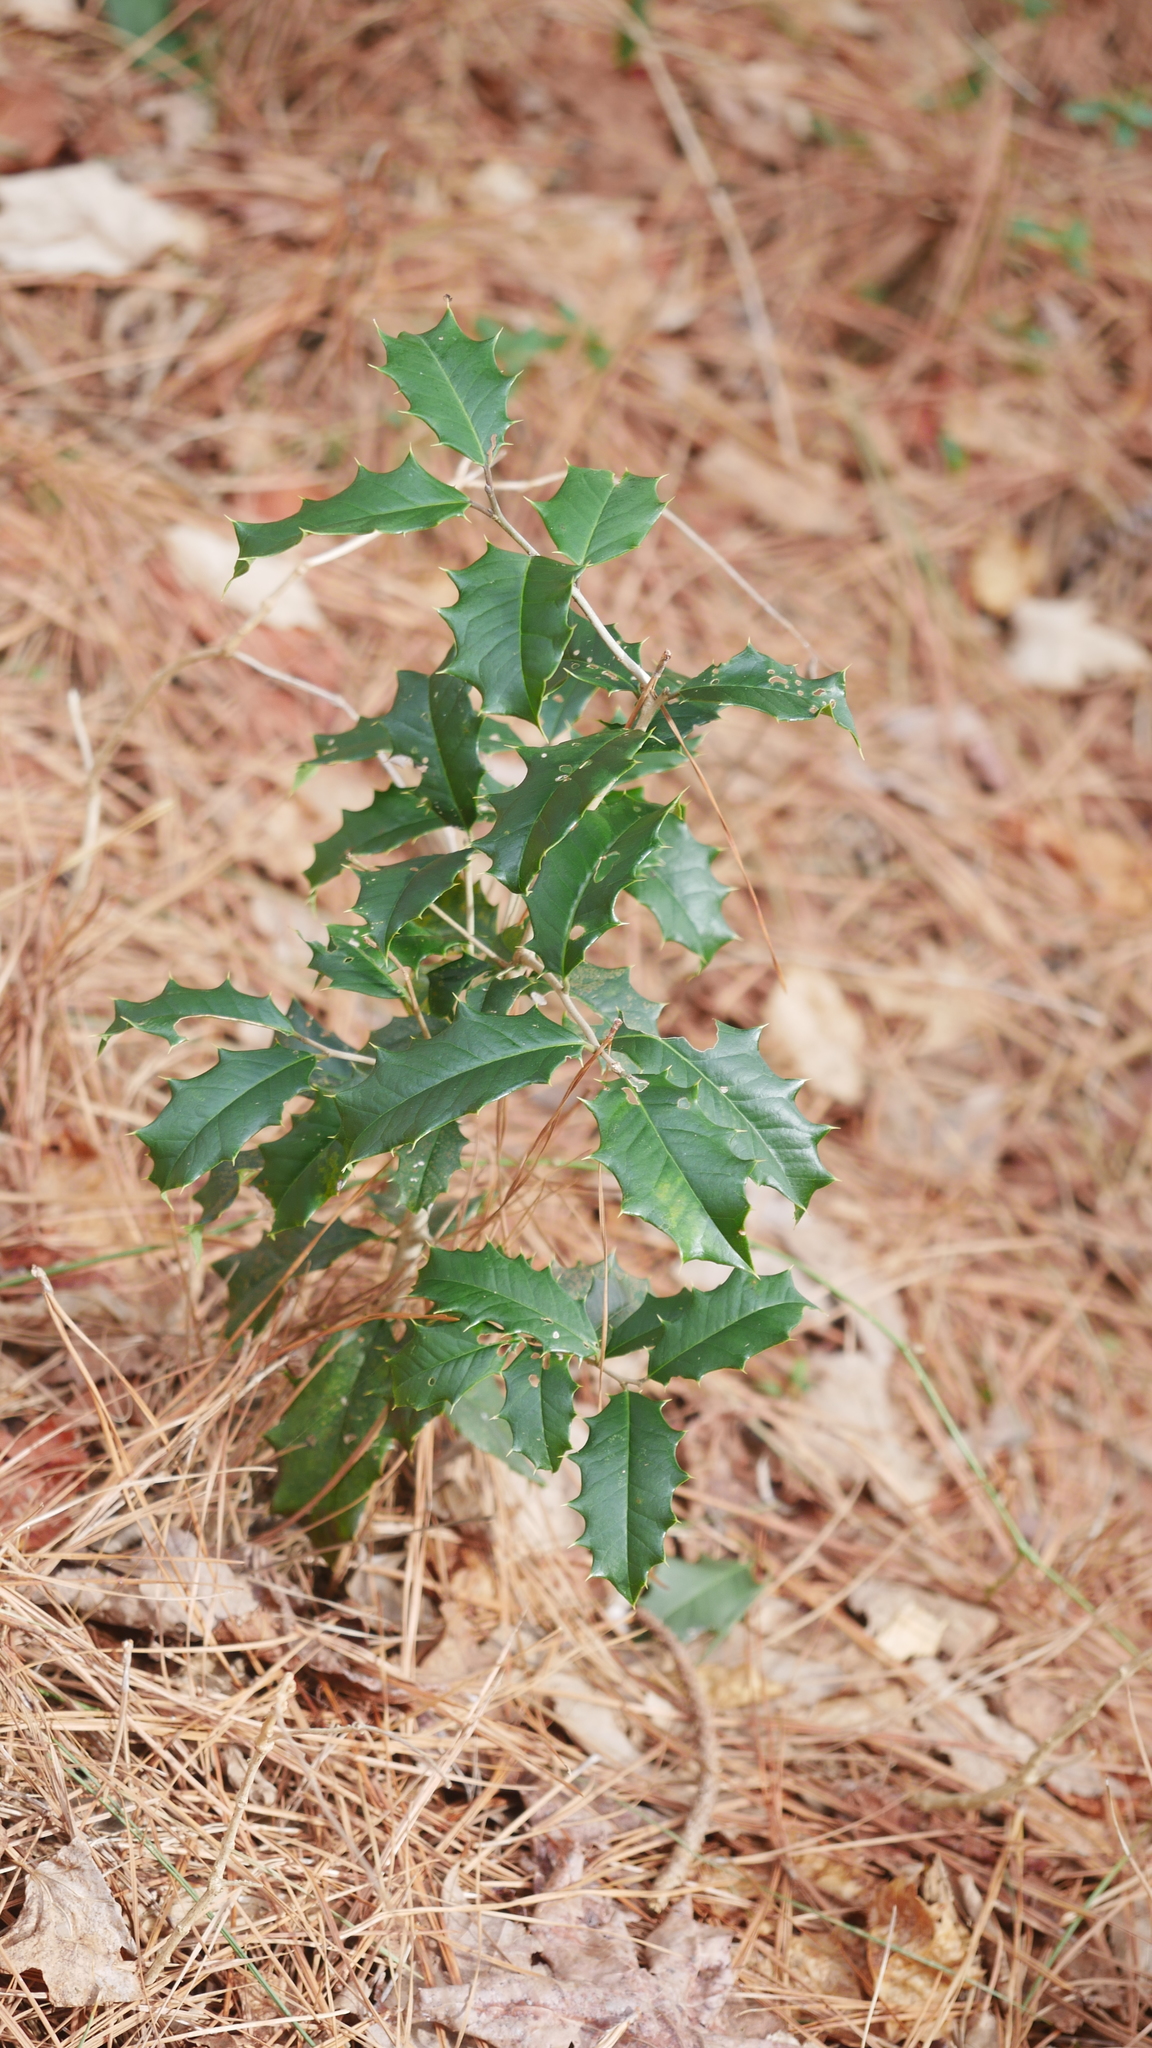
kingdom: Plantae
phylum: Tracheophyta
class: Magnoliopsida
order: Aquifoliales
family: Aquifoliaceae
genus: Ilex
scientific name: Ilex opaca
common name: American holly
